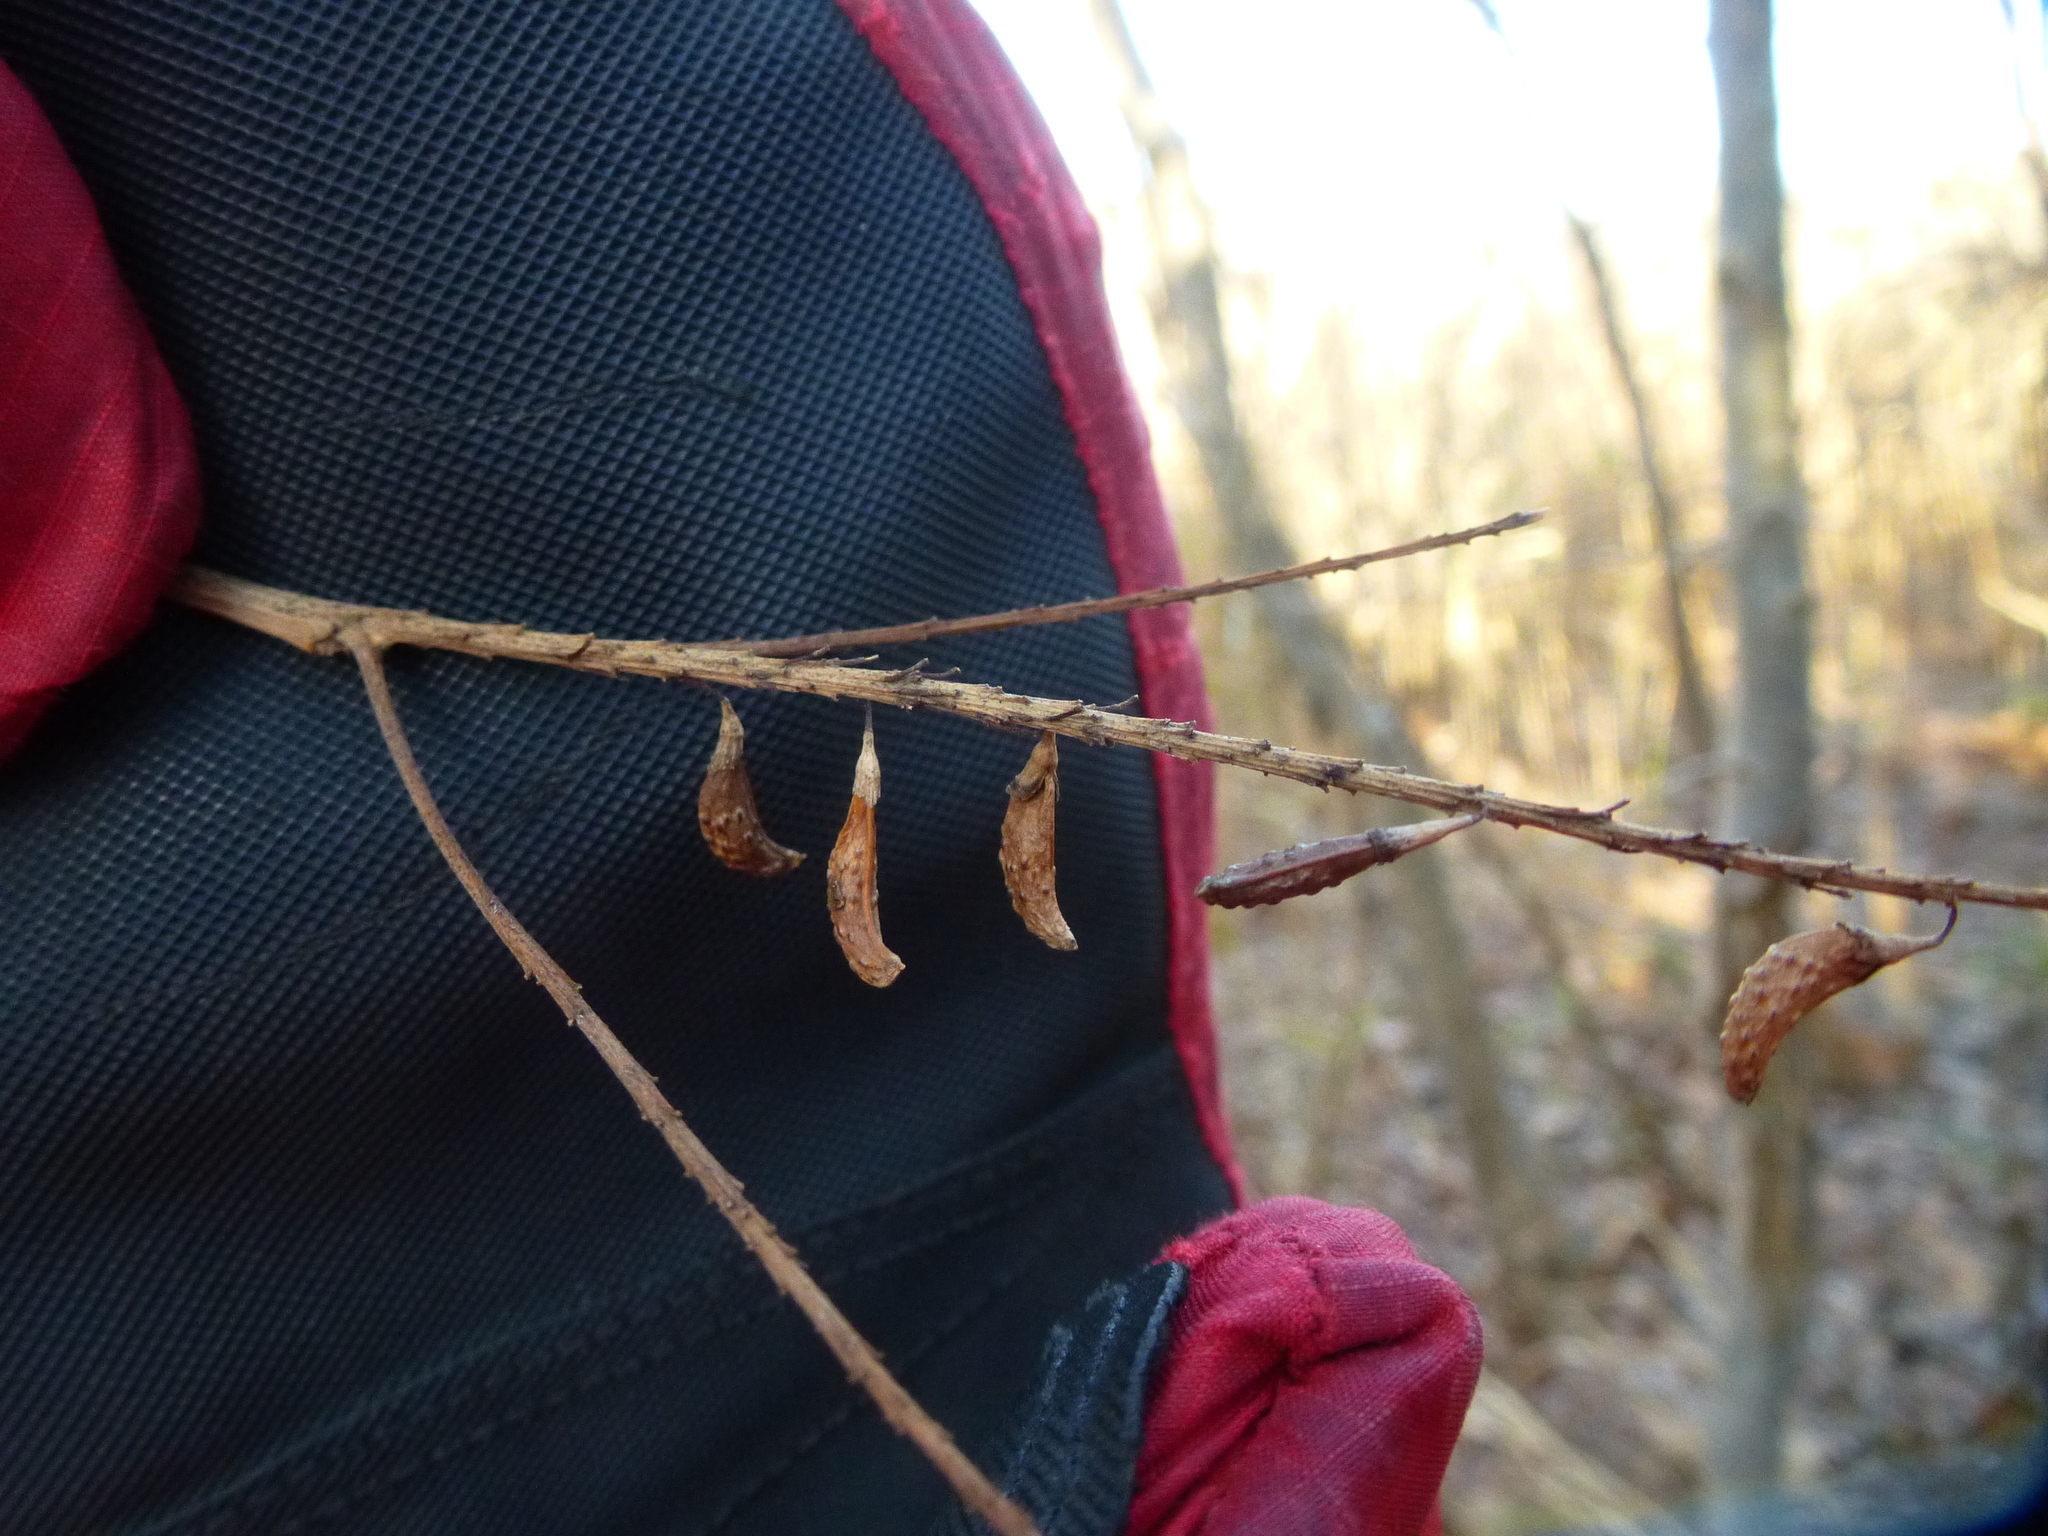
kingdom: Plantae
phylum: Tracheophyta
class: Magnoliopsida
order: Fabales
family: Fabaceae
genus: Amorpha
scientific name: Amorpha fruticosa
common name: False indigo
